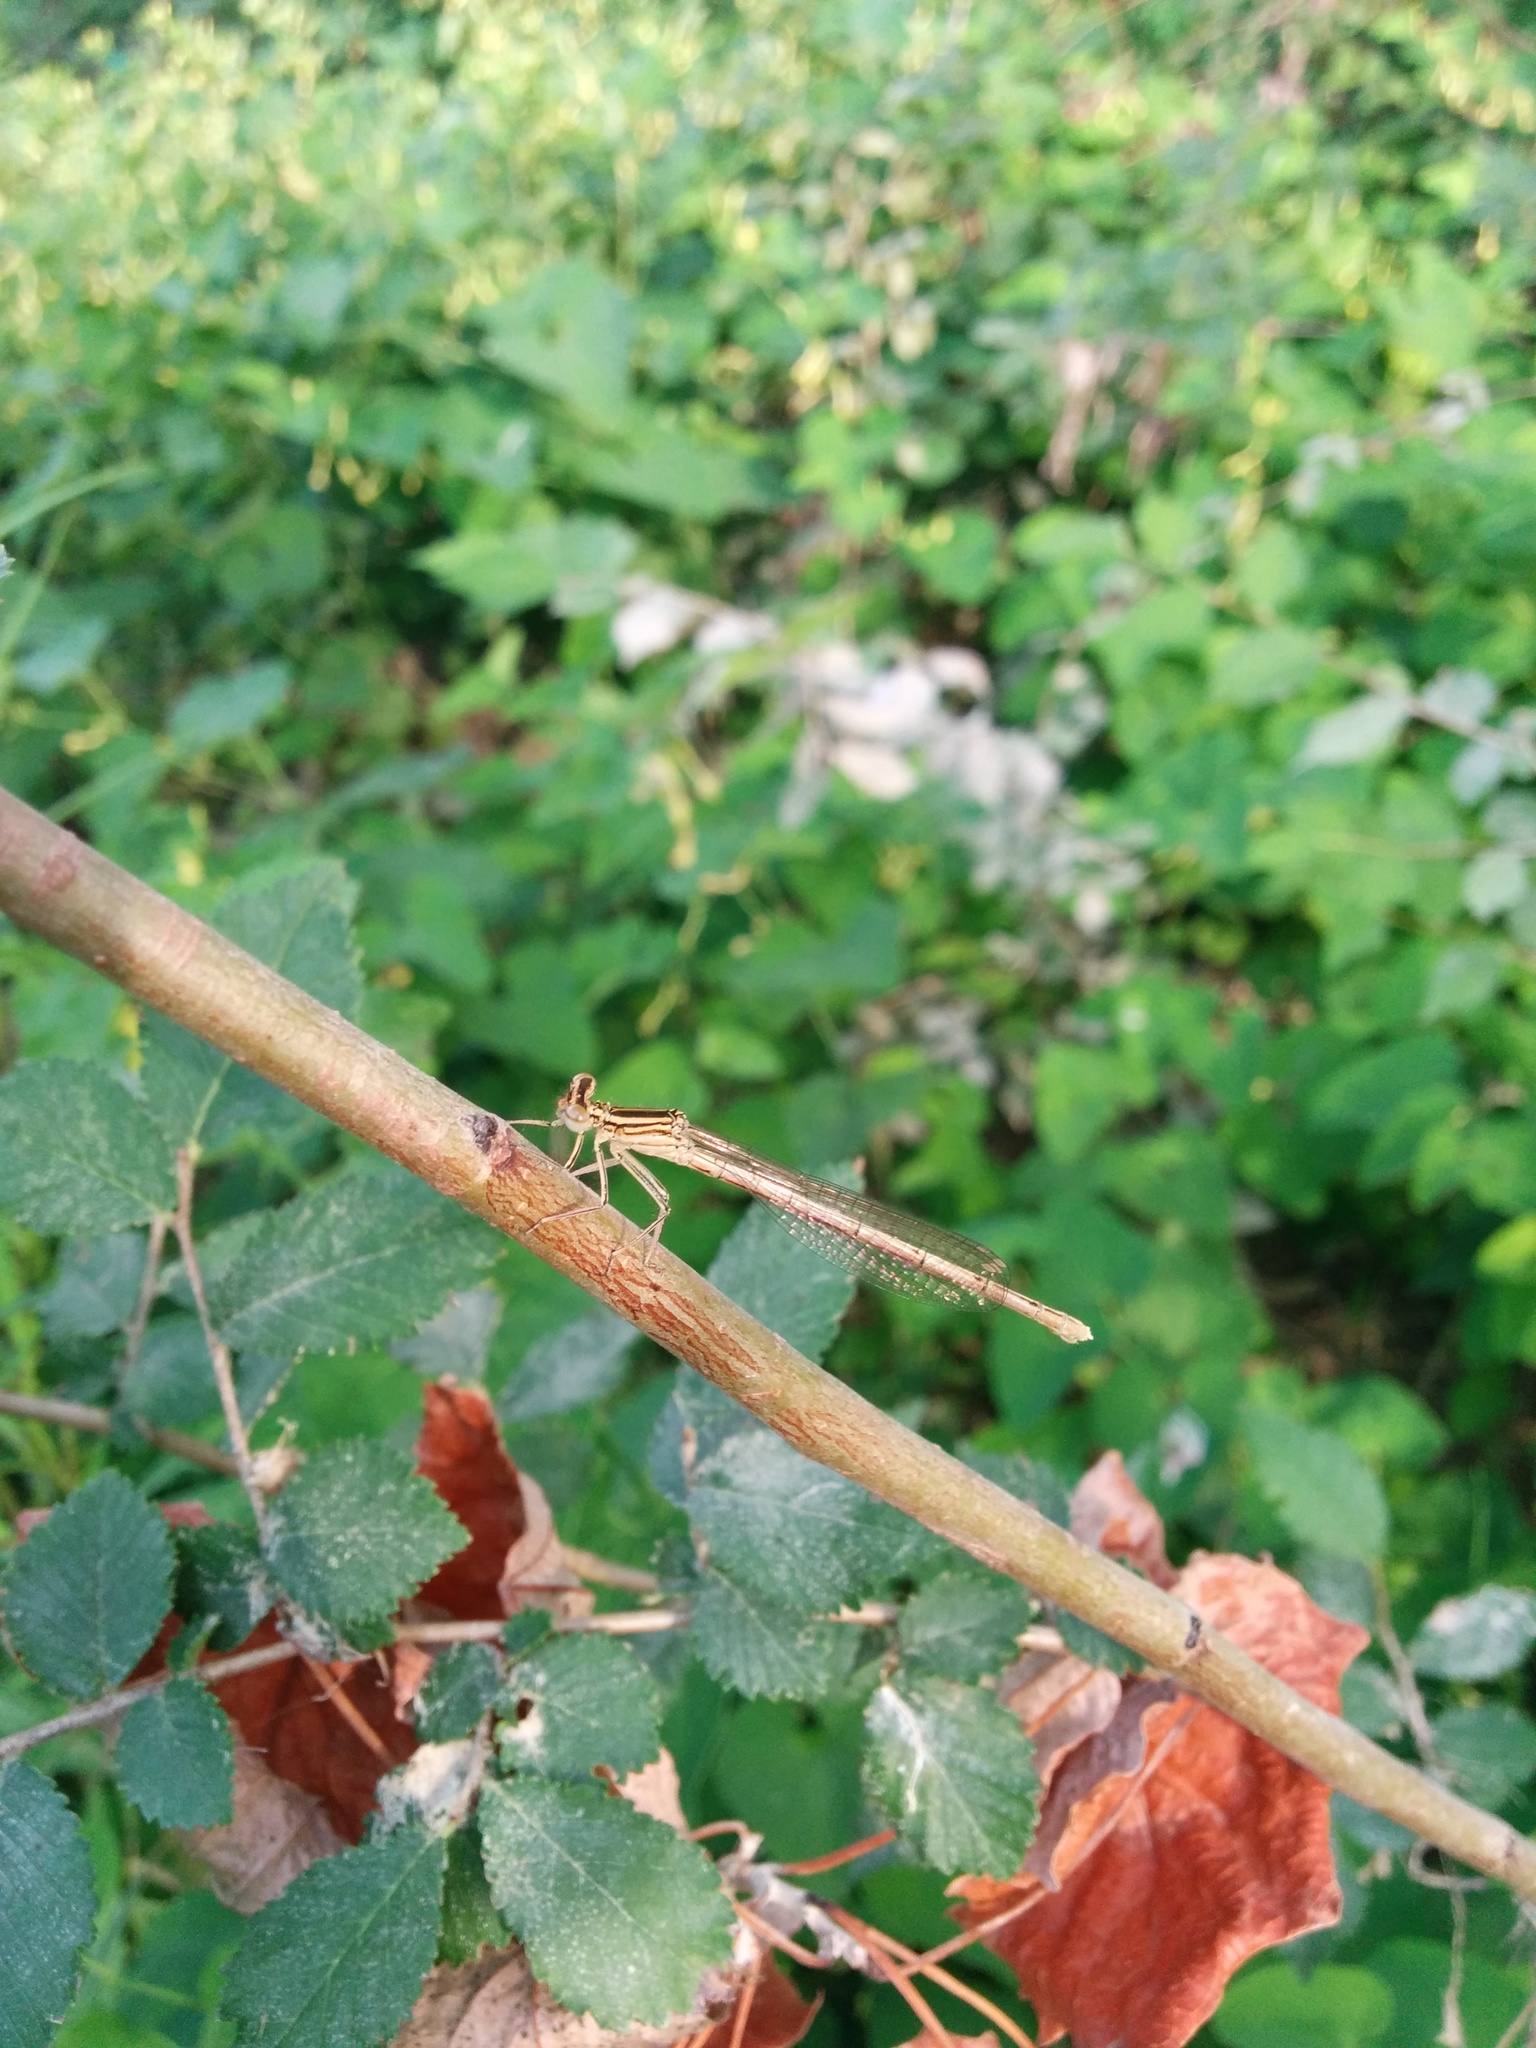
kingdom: Animalia
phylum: Arthropoda
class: Insecta
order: Odonata
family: Platycnemididae
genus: Platycnemis
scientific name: Platycnemis pennipes
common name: White-legged damselfly
